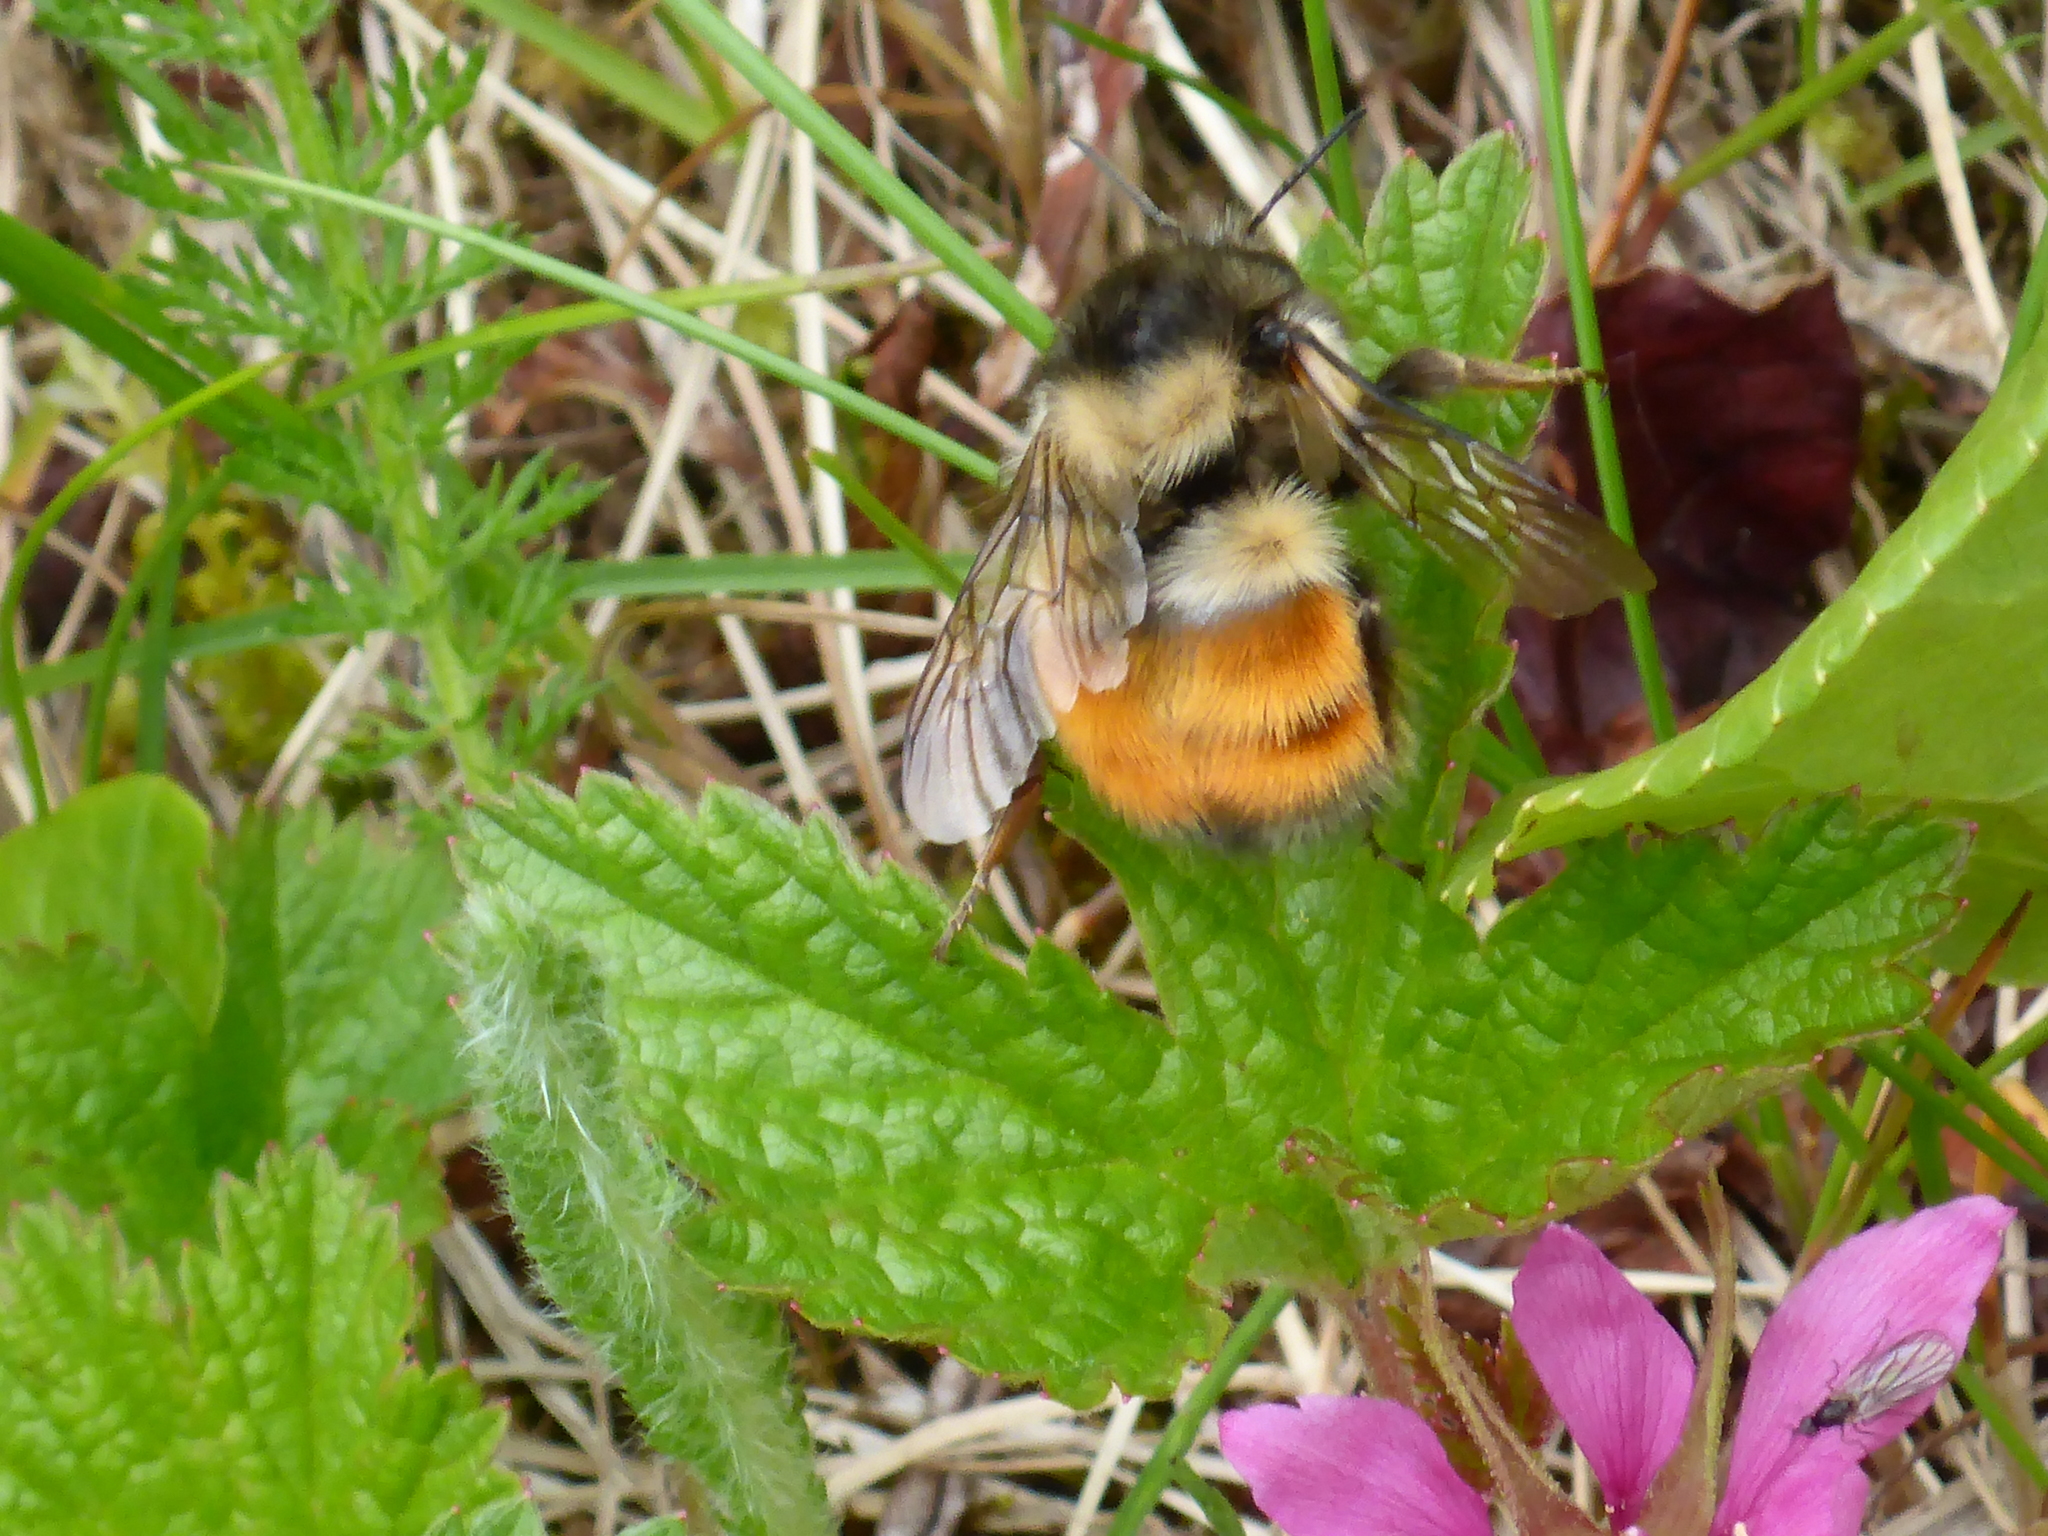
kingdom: Animalia
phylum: Arthropoda
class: Insecta
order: Hymenoptera
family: Apidae
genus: Bombus
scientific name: Bombus melanopygus
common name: Black tail bumble bee
